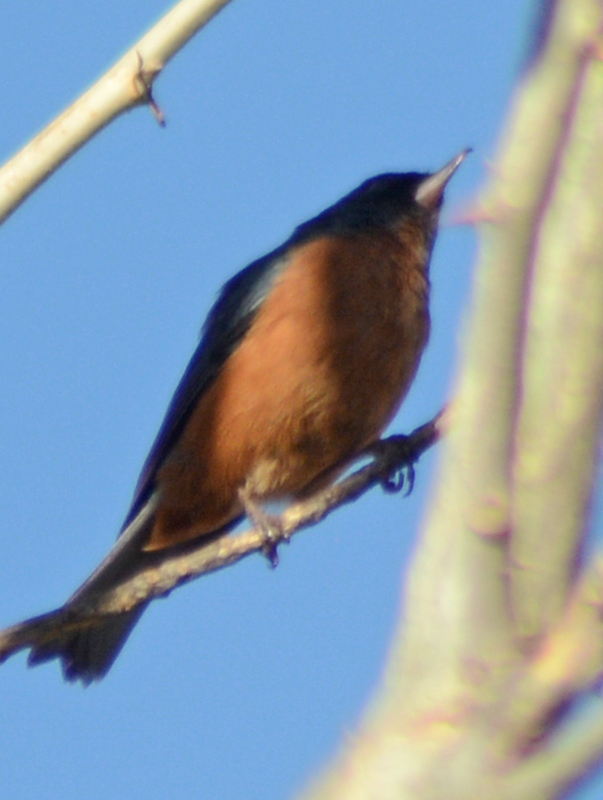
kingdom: Animalia
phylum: Chordata
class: Aves
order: Passeriformes
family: Thraupidae
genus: Diglossa
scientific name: Diglossa baritula
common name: Cinnamon-bellied flowerpiercer
